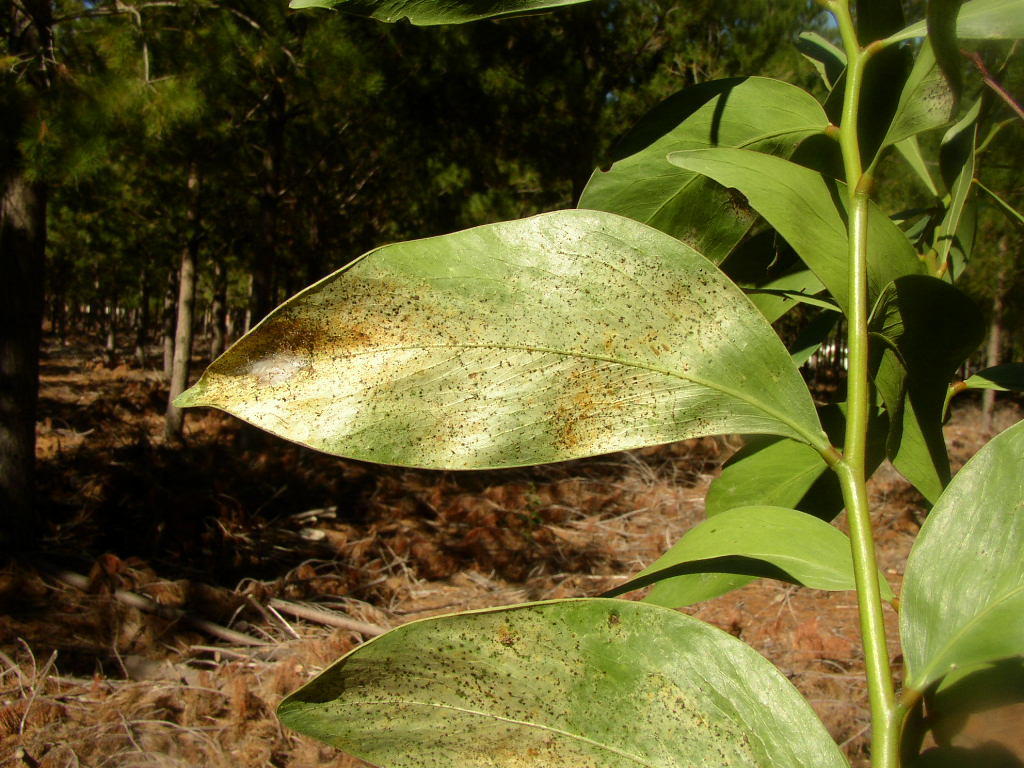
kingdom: Plantae
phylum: Tracheophyta
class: Magnoliopsida
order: Fabales
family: Fabaceae
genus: Acacia
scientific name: Acacia pycnantha
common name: Golden wattle
